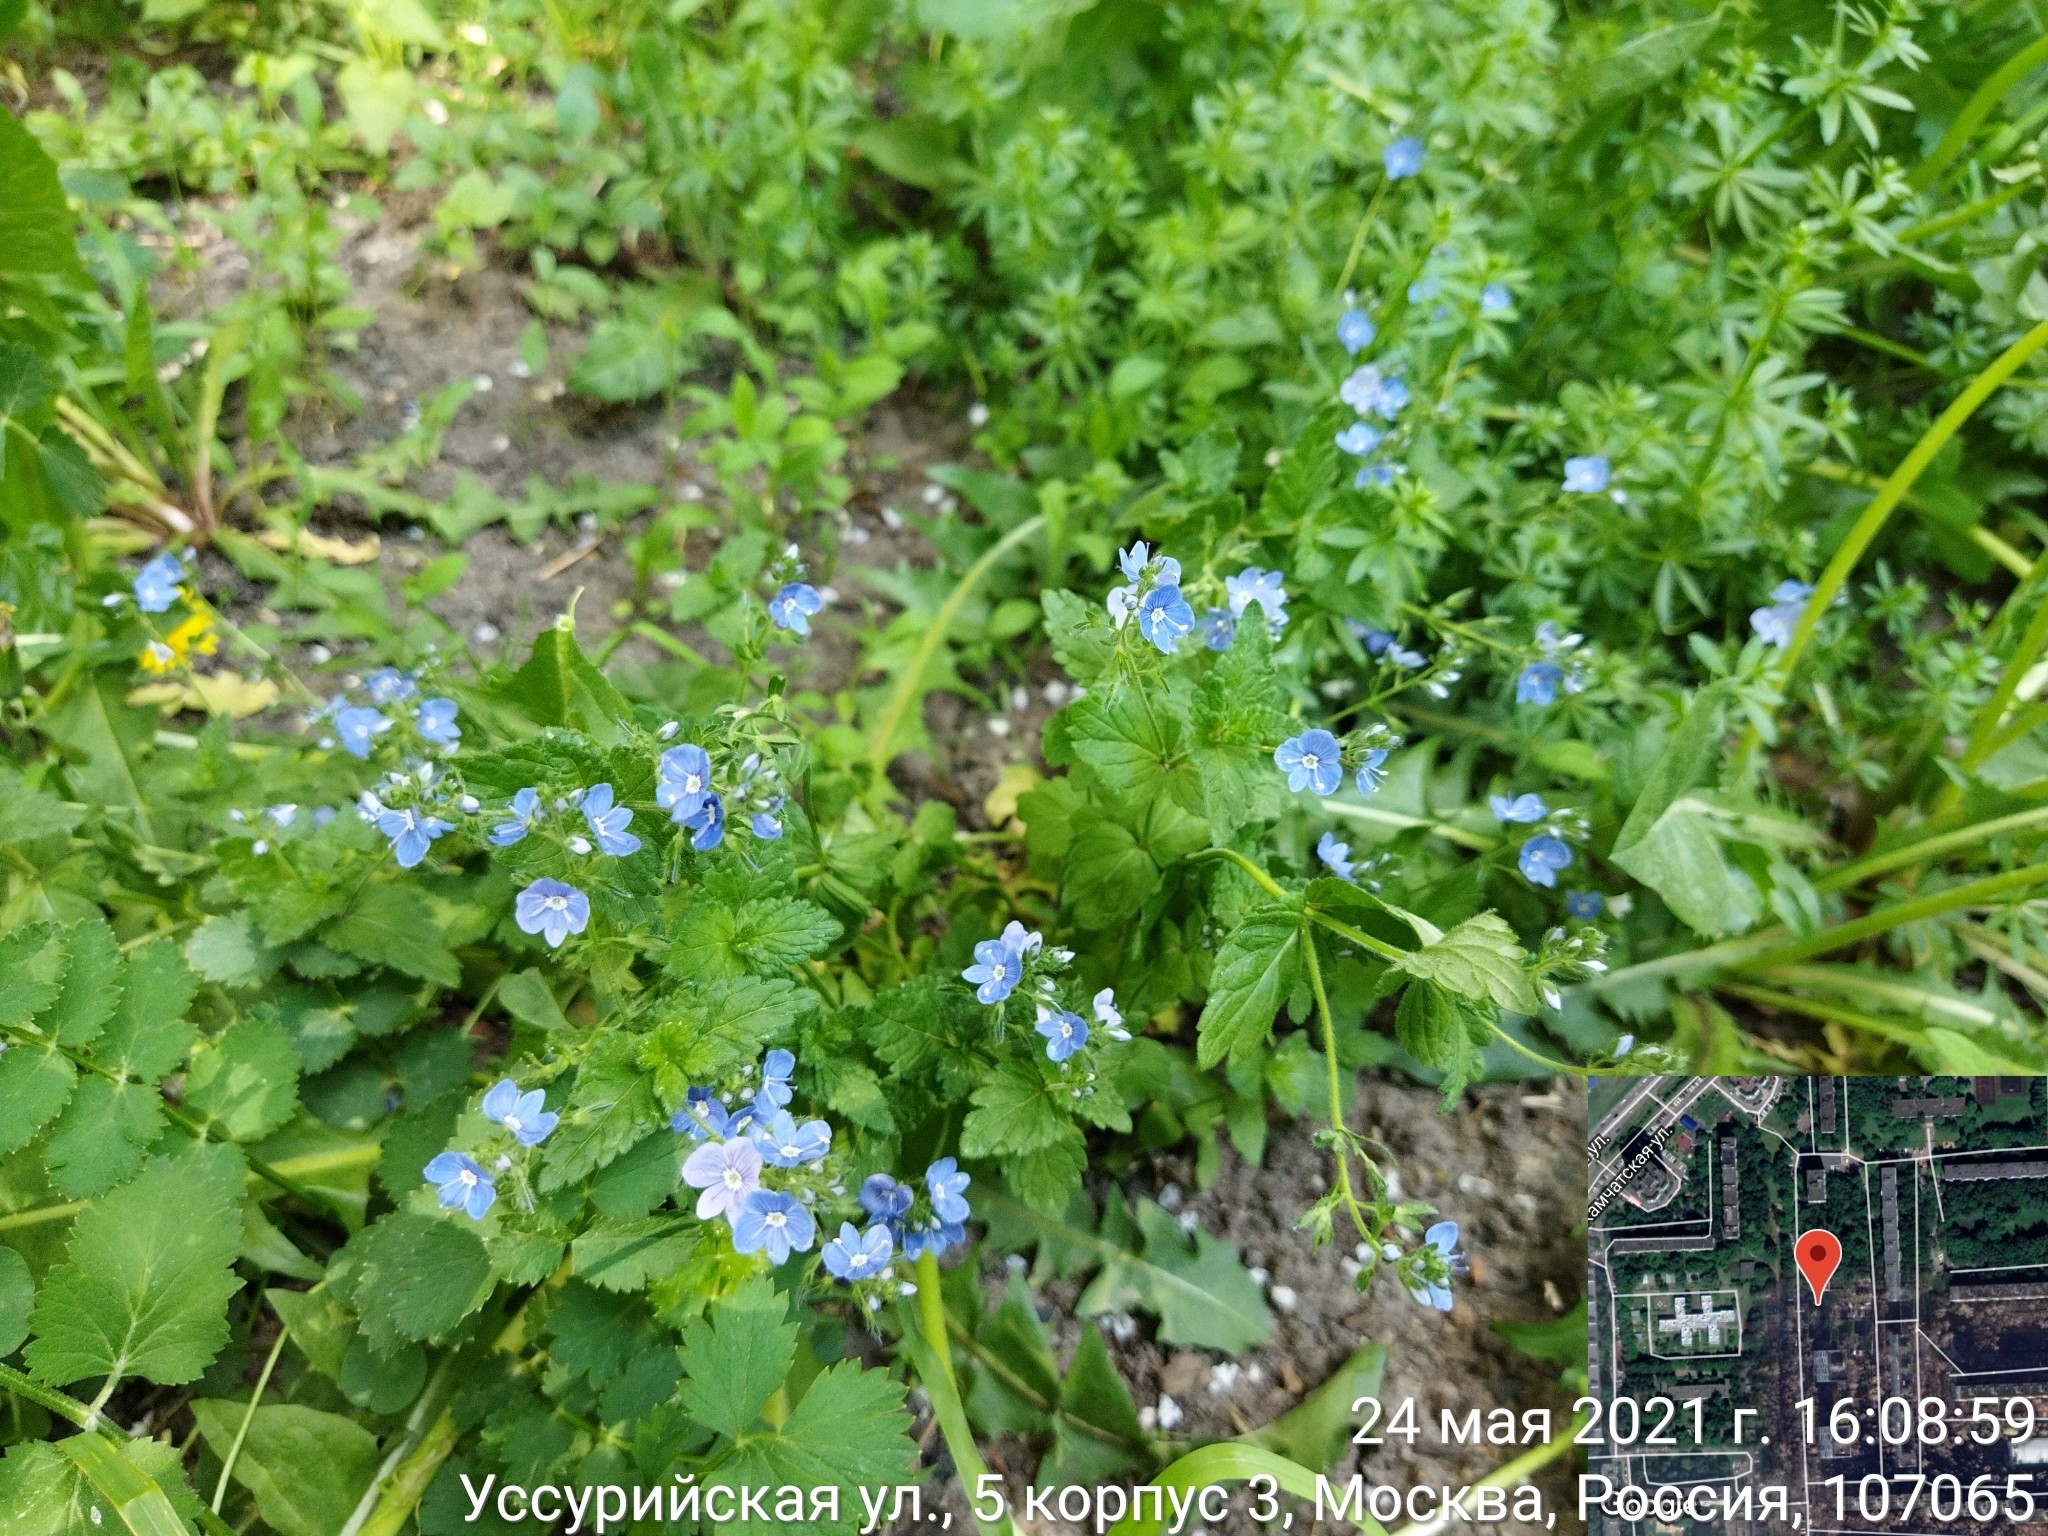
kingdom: Plantae
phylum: Tracheophyta
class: Magnoliopsida
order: Lamiales
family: Plantaginaceae
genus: Veronica
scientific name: Veronica chamaedrys
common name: Germander speedwell
